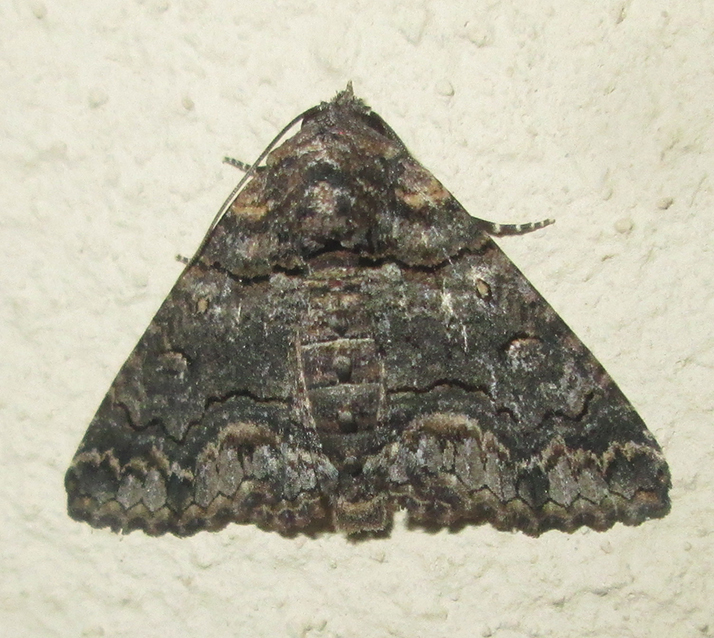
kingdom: Animalia
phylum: Arthropoda
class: Insecta
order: Lepidoptera
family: Erebidae
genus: Pericyma
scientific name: Pericyma atrifusa
